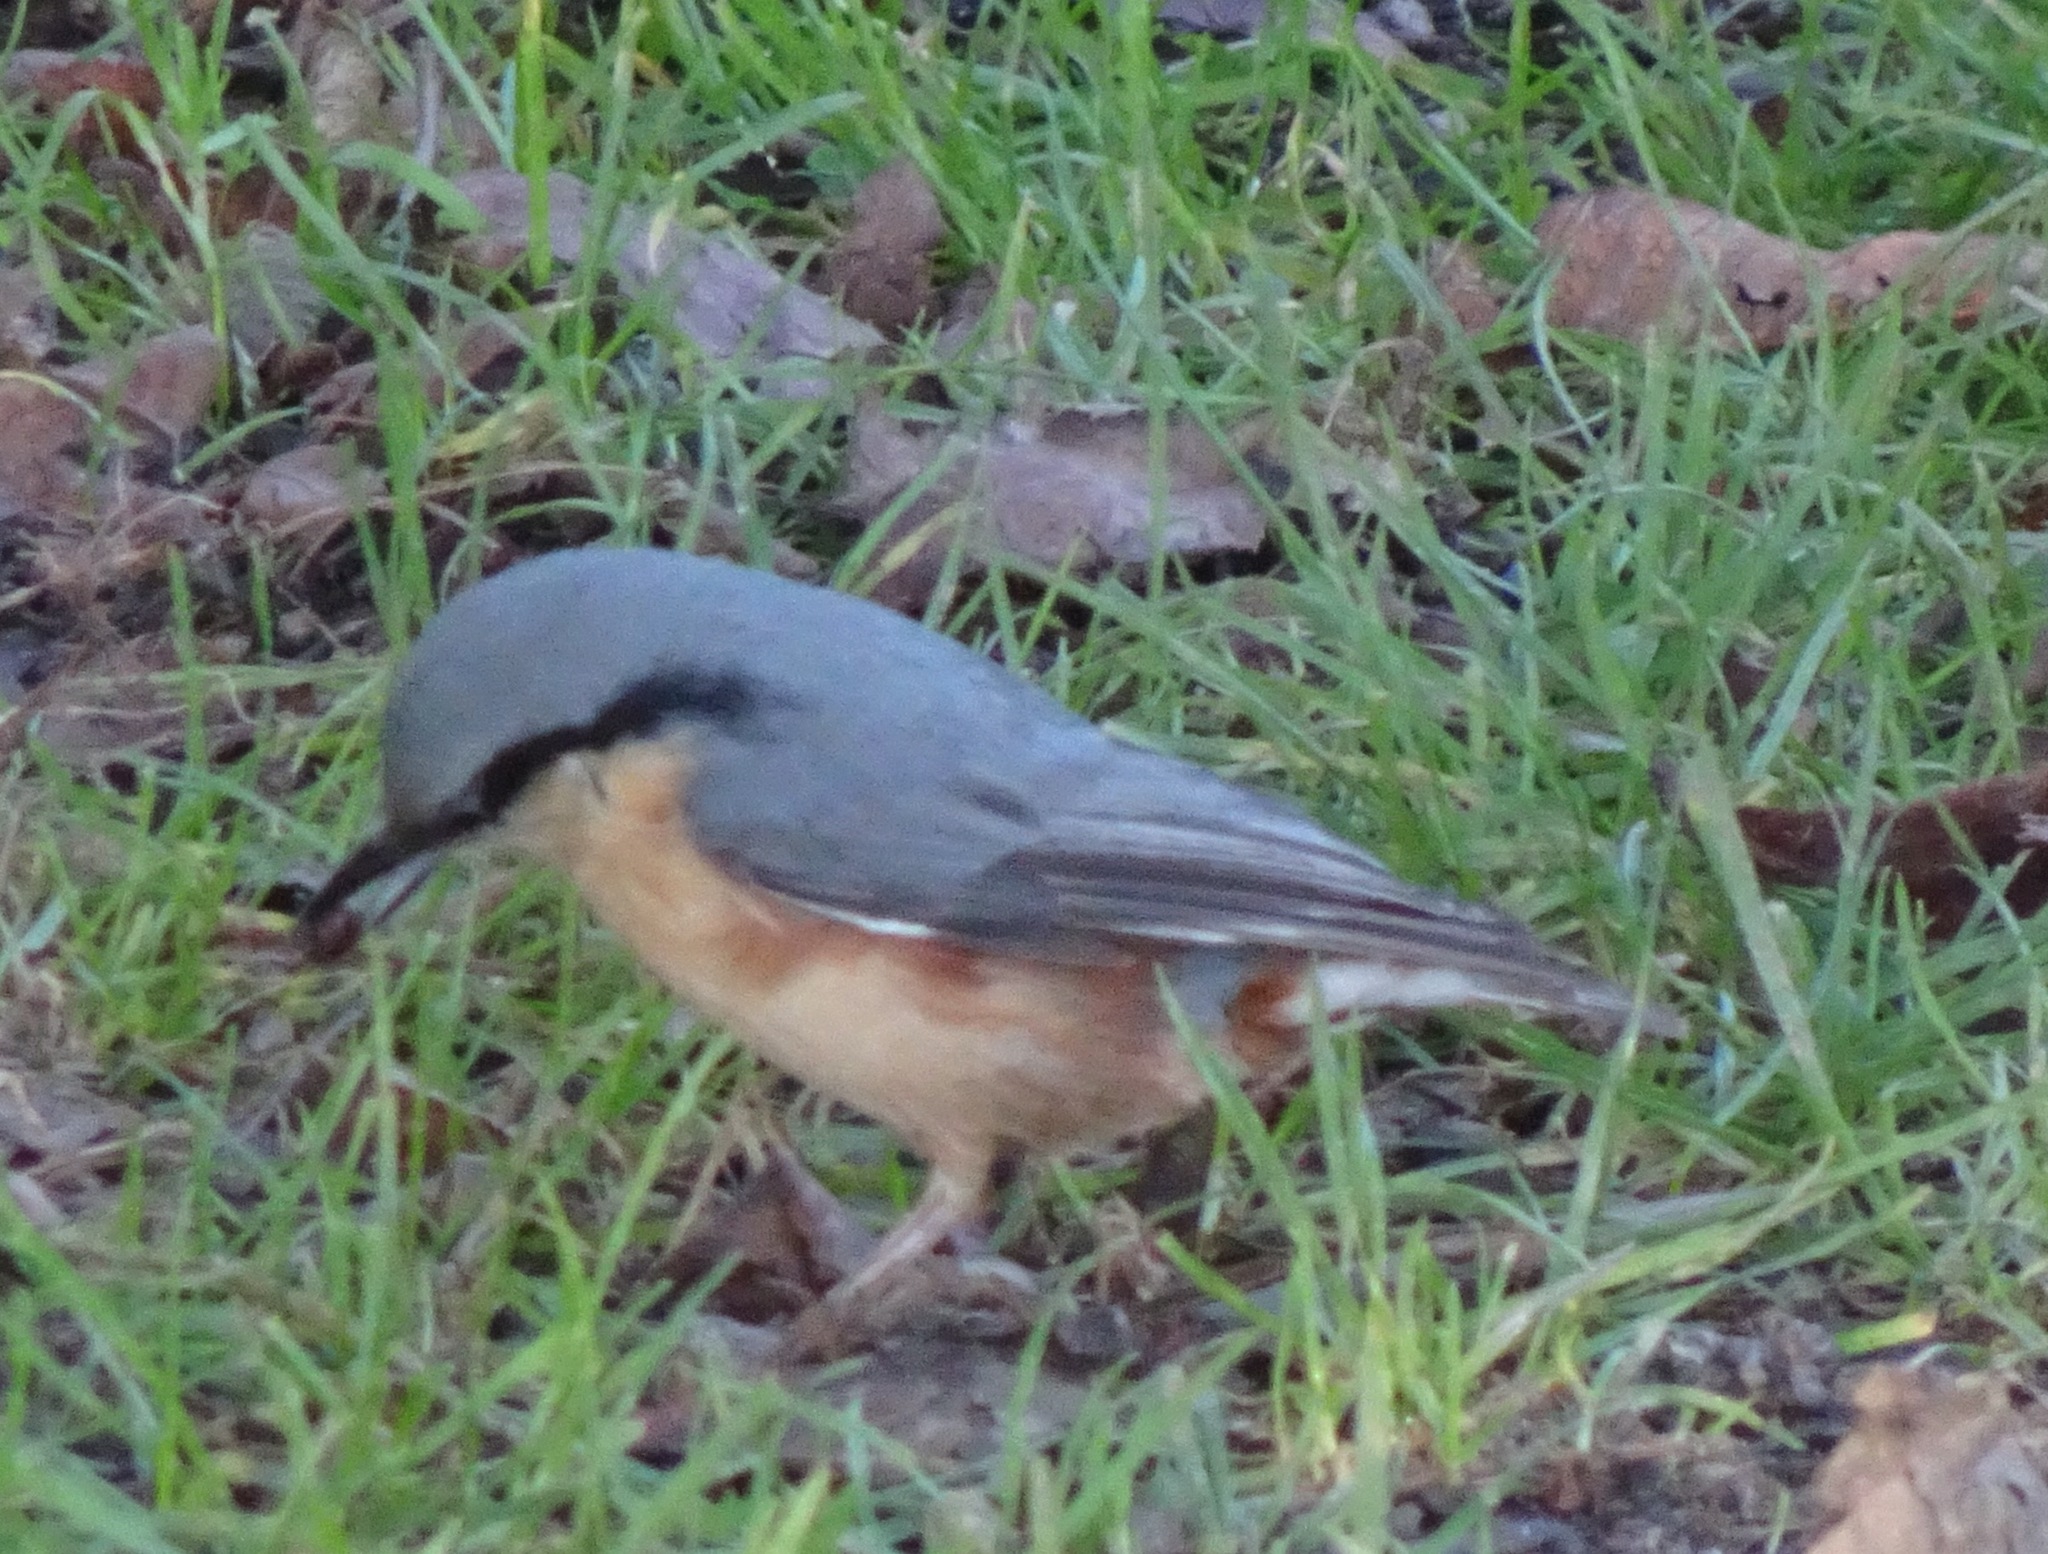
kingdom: Animalia
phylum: Chordata
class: Aves
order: Passeriformes
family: Sittidae
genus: Sitta
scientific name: Sitta europaea
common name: Eurasian nuthatch
